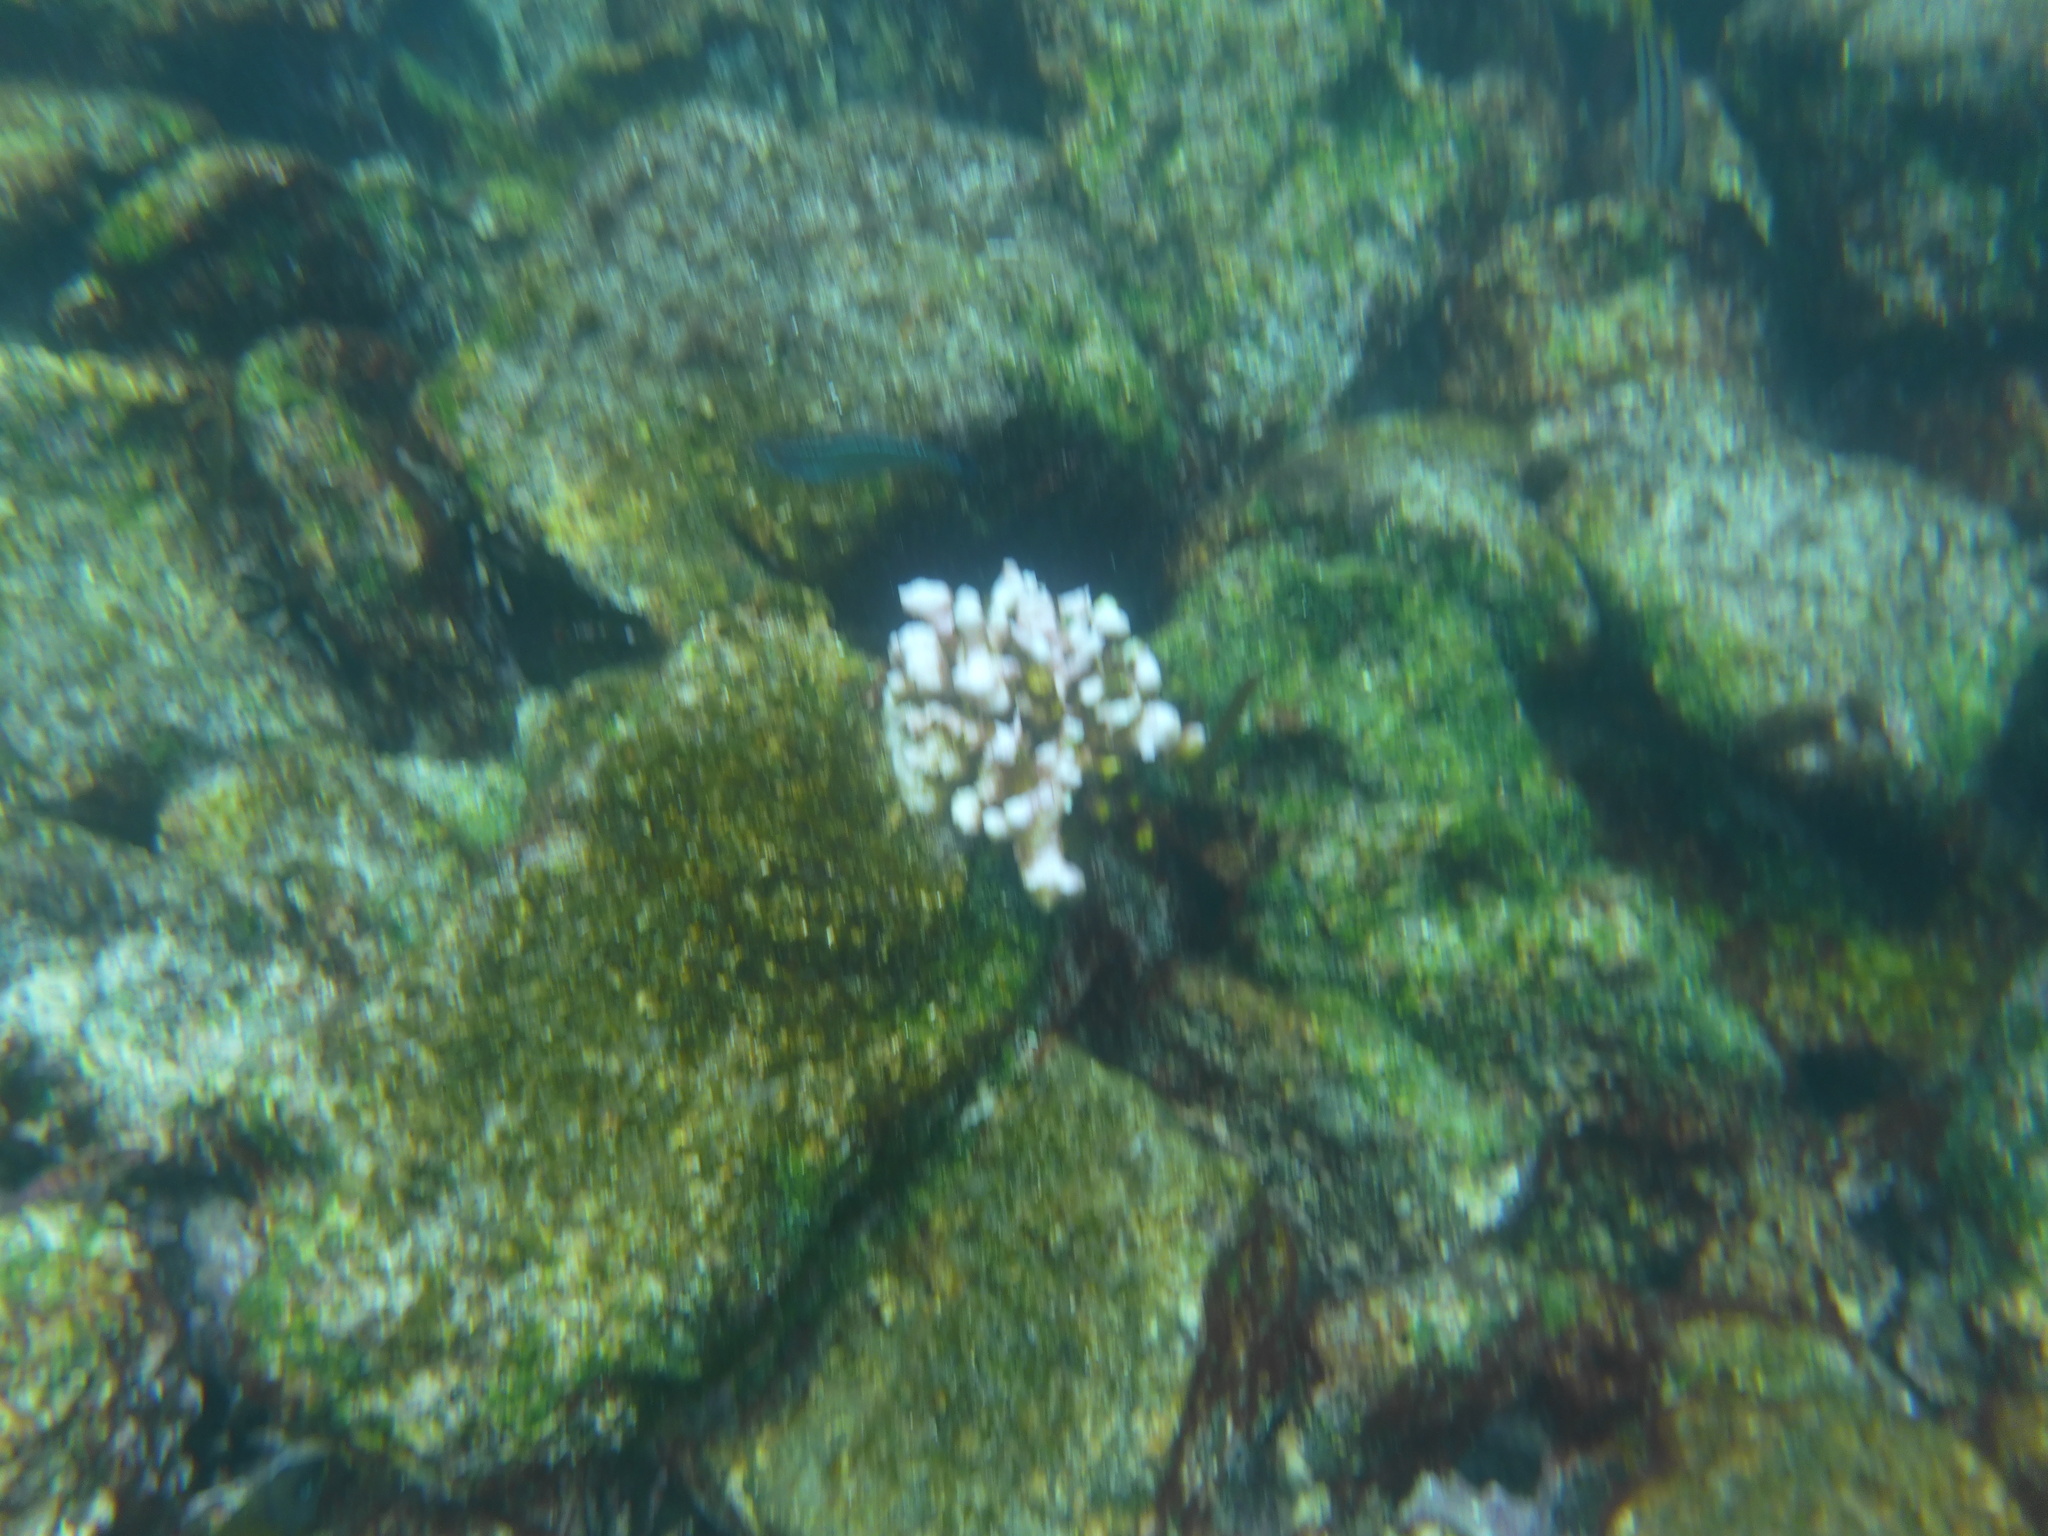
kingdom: Animalia
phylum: Cnidaria
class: Anthozoa
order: Scleractinia
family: Pocilloporidae
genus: Pocillopora
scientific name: Pocillopora damicornis
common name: Cauliflower coral
